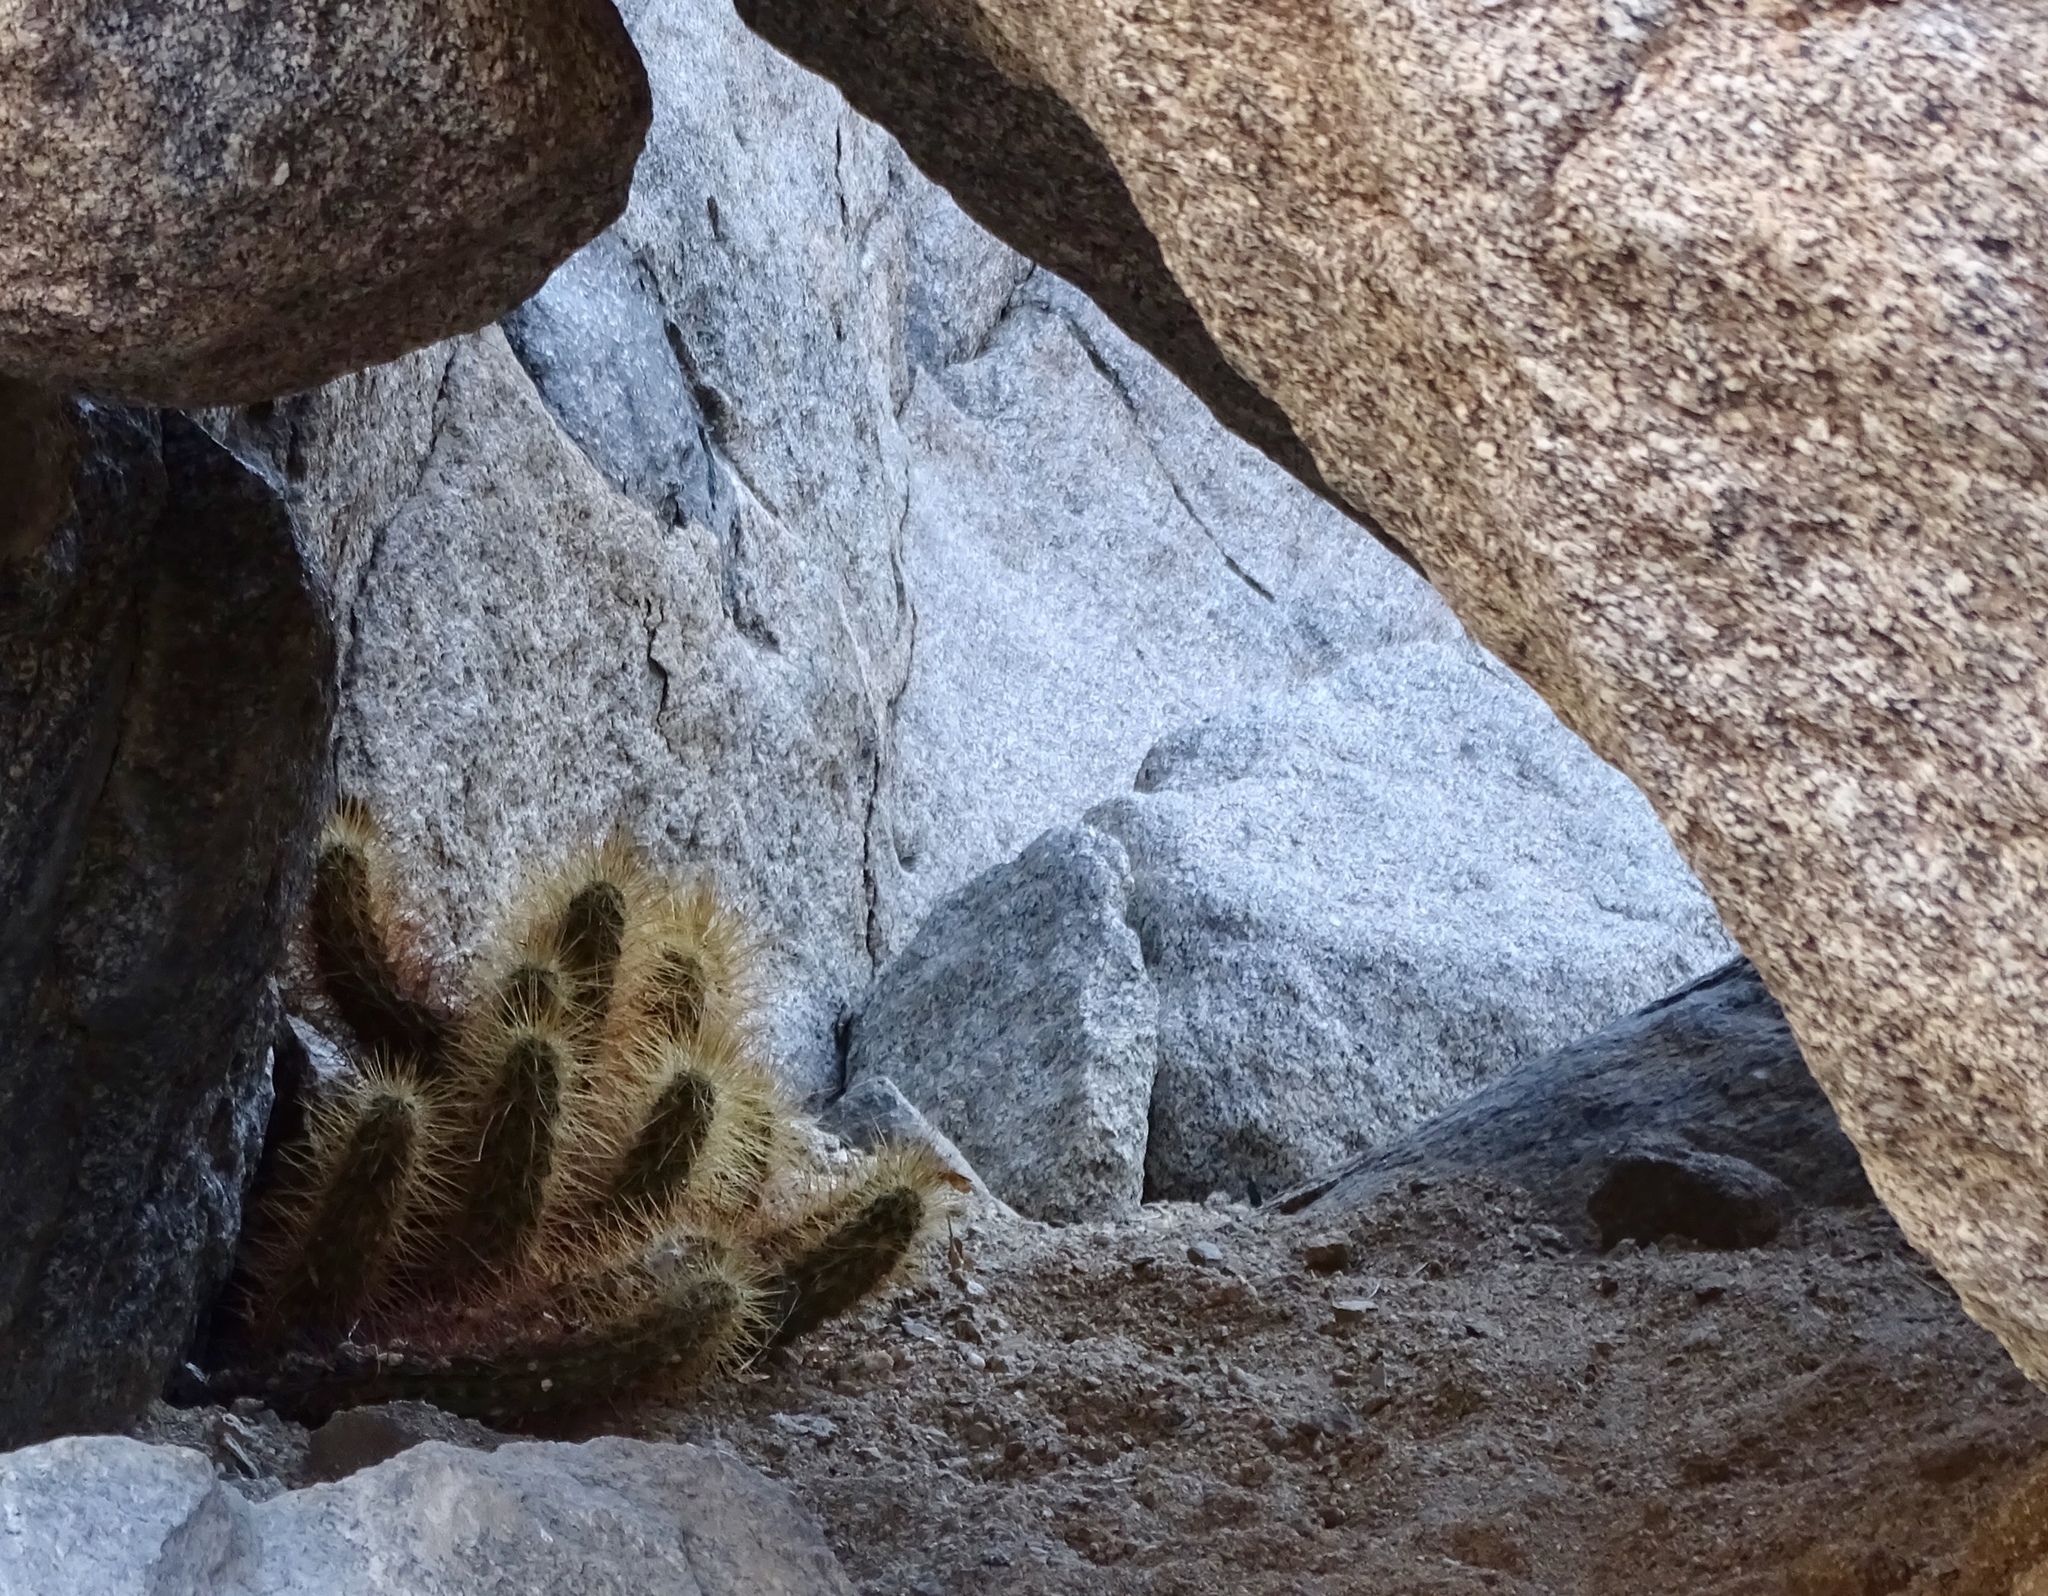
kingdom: Plantae
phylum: Tracheophyta
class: Magnoliopsida
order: Caryophyllales
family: Cactaceae
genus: Echinocereus
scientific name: Echinocereus engelmannii
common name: Engelmann's hedgehog cactus
